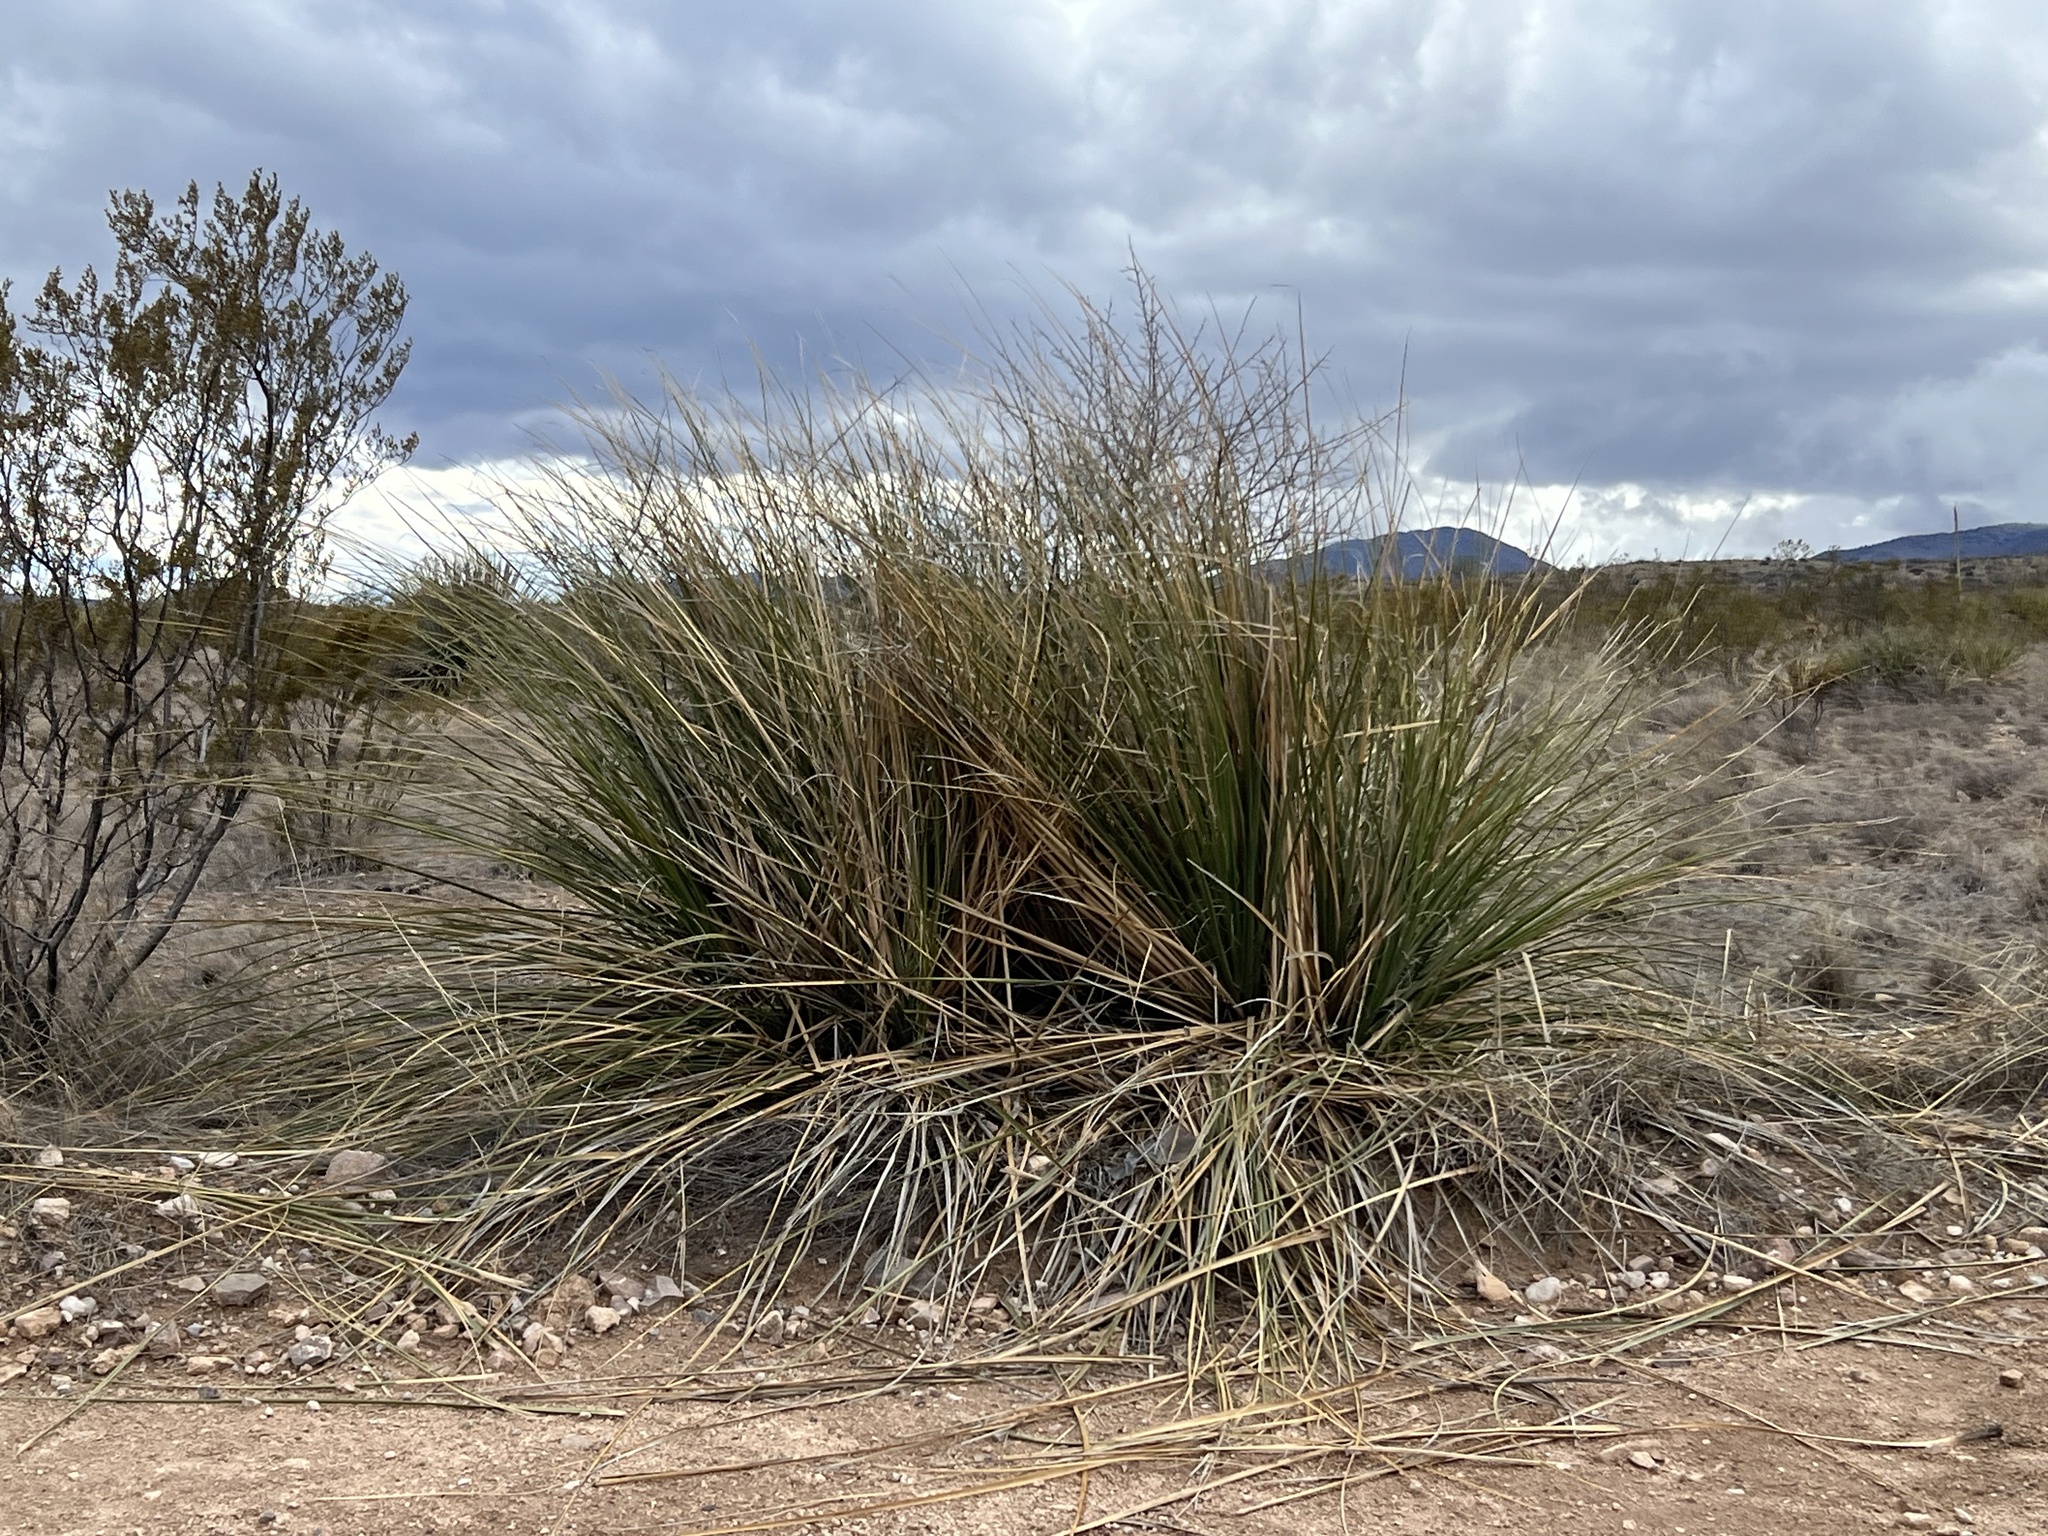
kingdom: Plantae
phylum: Tracheophyta
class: Liliopsida
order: Asparagales
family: Asparagaceae
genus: Nolina
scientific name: Nolina microcarpa
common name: Bear-grass
